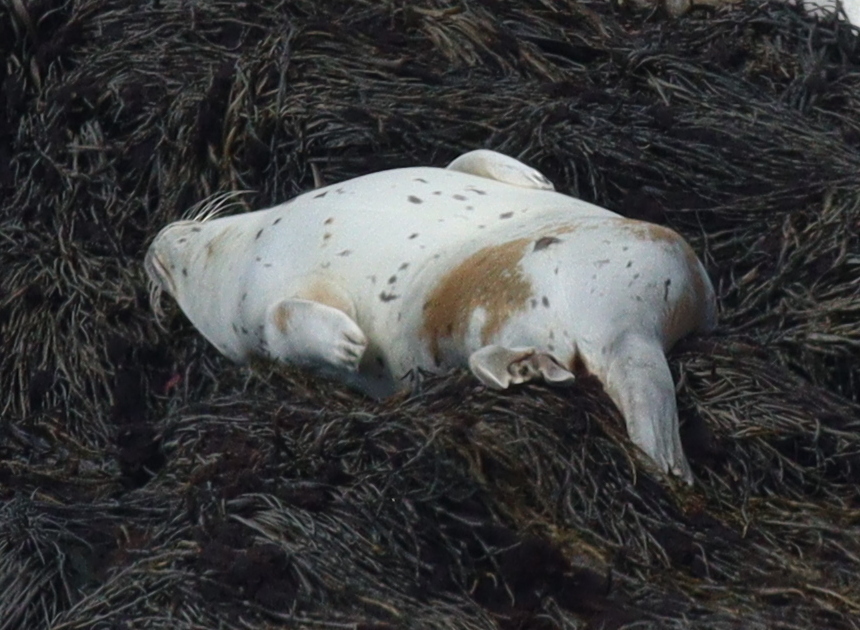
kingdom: Animalia
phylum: Chordata
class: Mammalia
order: Carnivora
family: Phocidae
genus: Phoca
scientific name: Phoca vitulina
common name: Harbor seal
